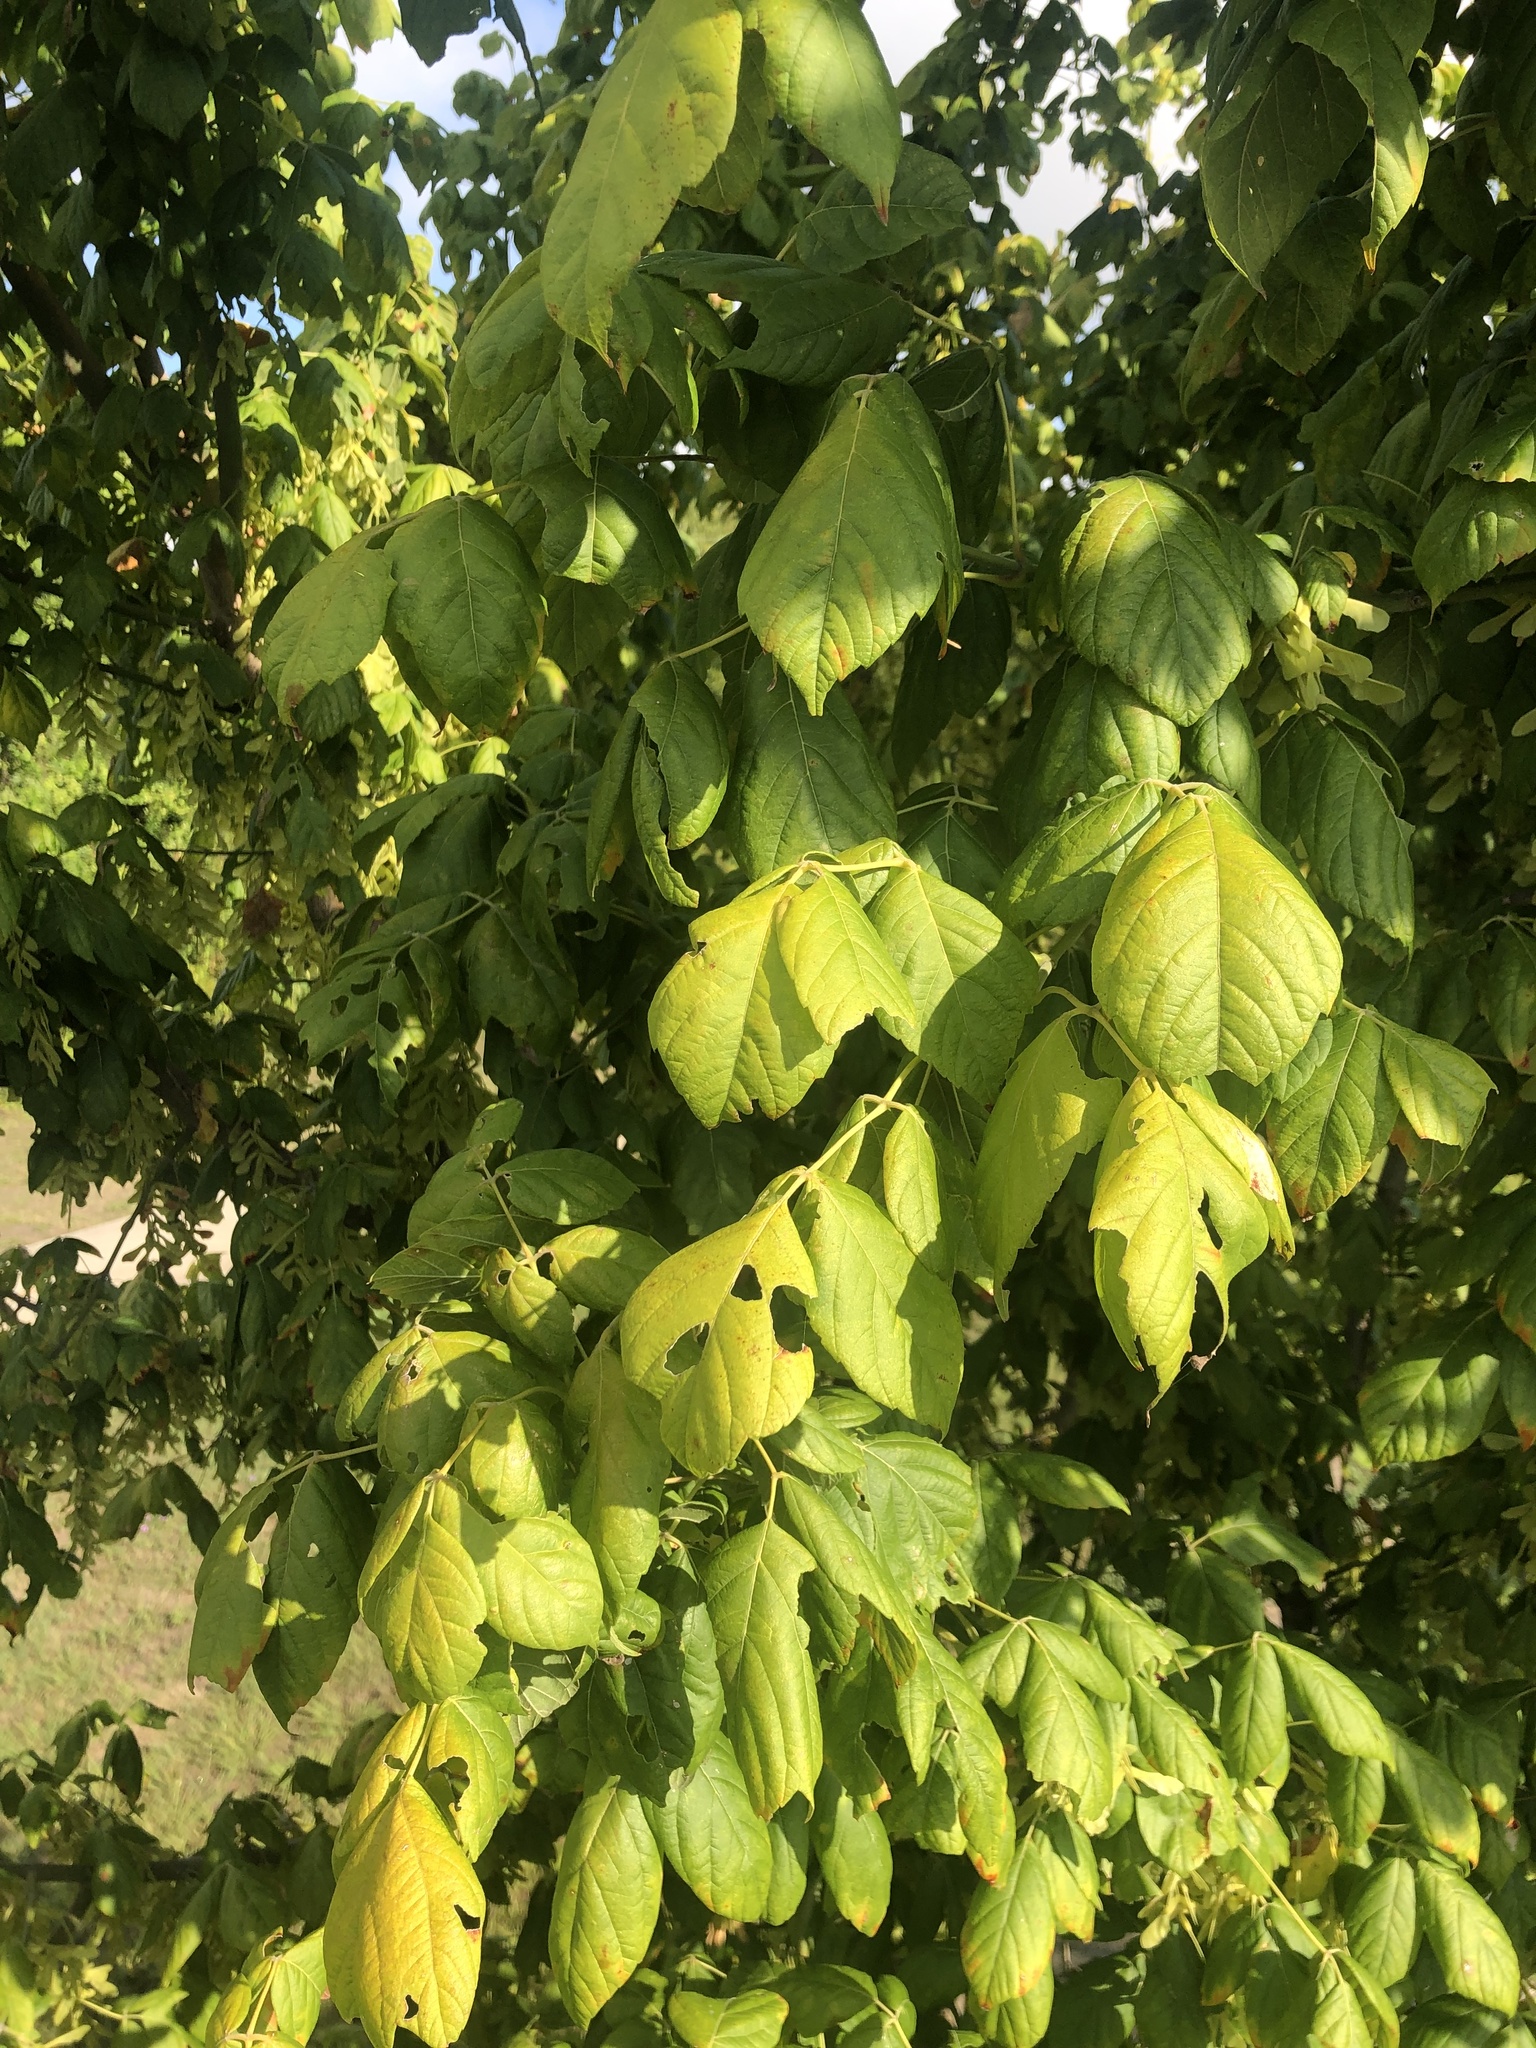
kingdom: Plantae
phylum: Tracheophyta
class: Magnoliopsida
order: Sapindales
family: Sapindaceae
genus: Acer
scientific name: Acer negundo
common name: Ashleaf maple
